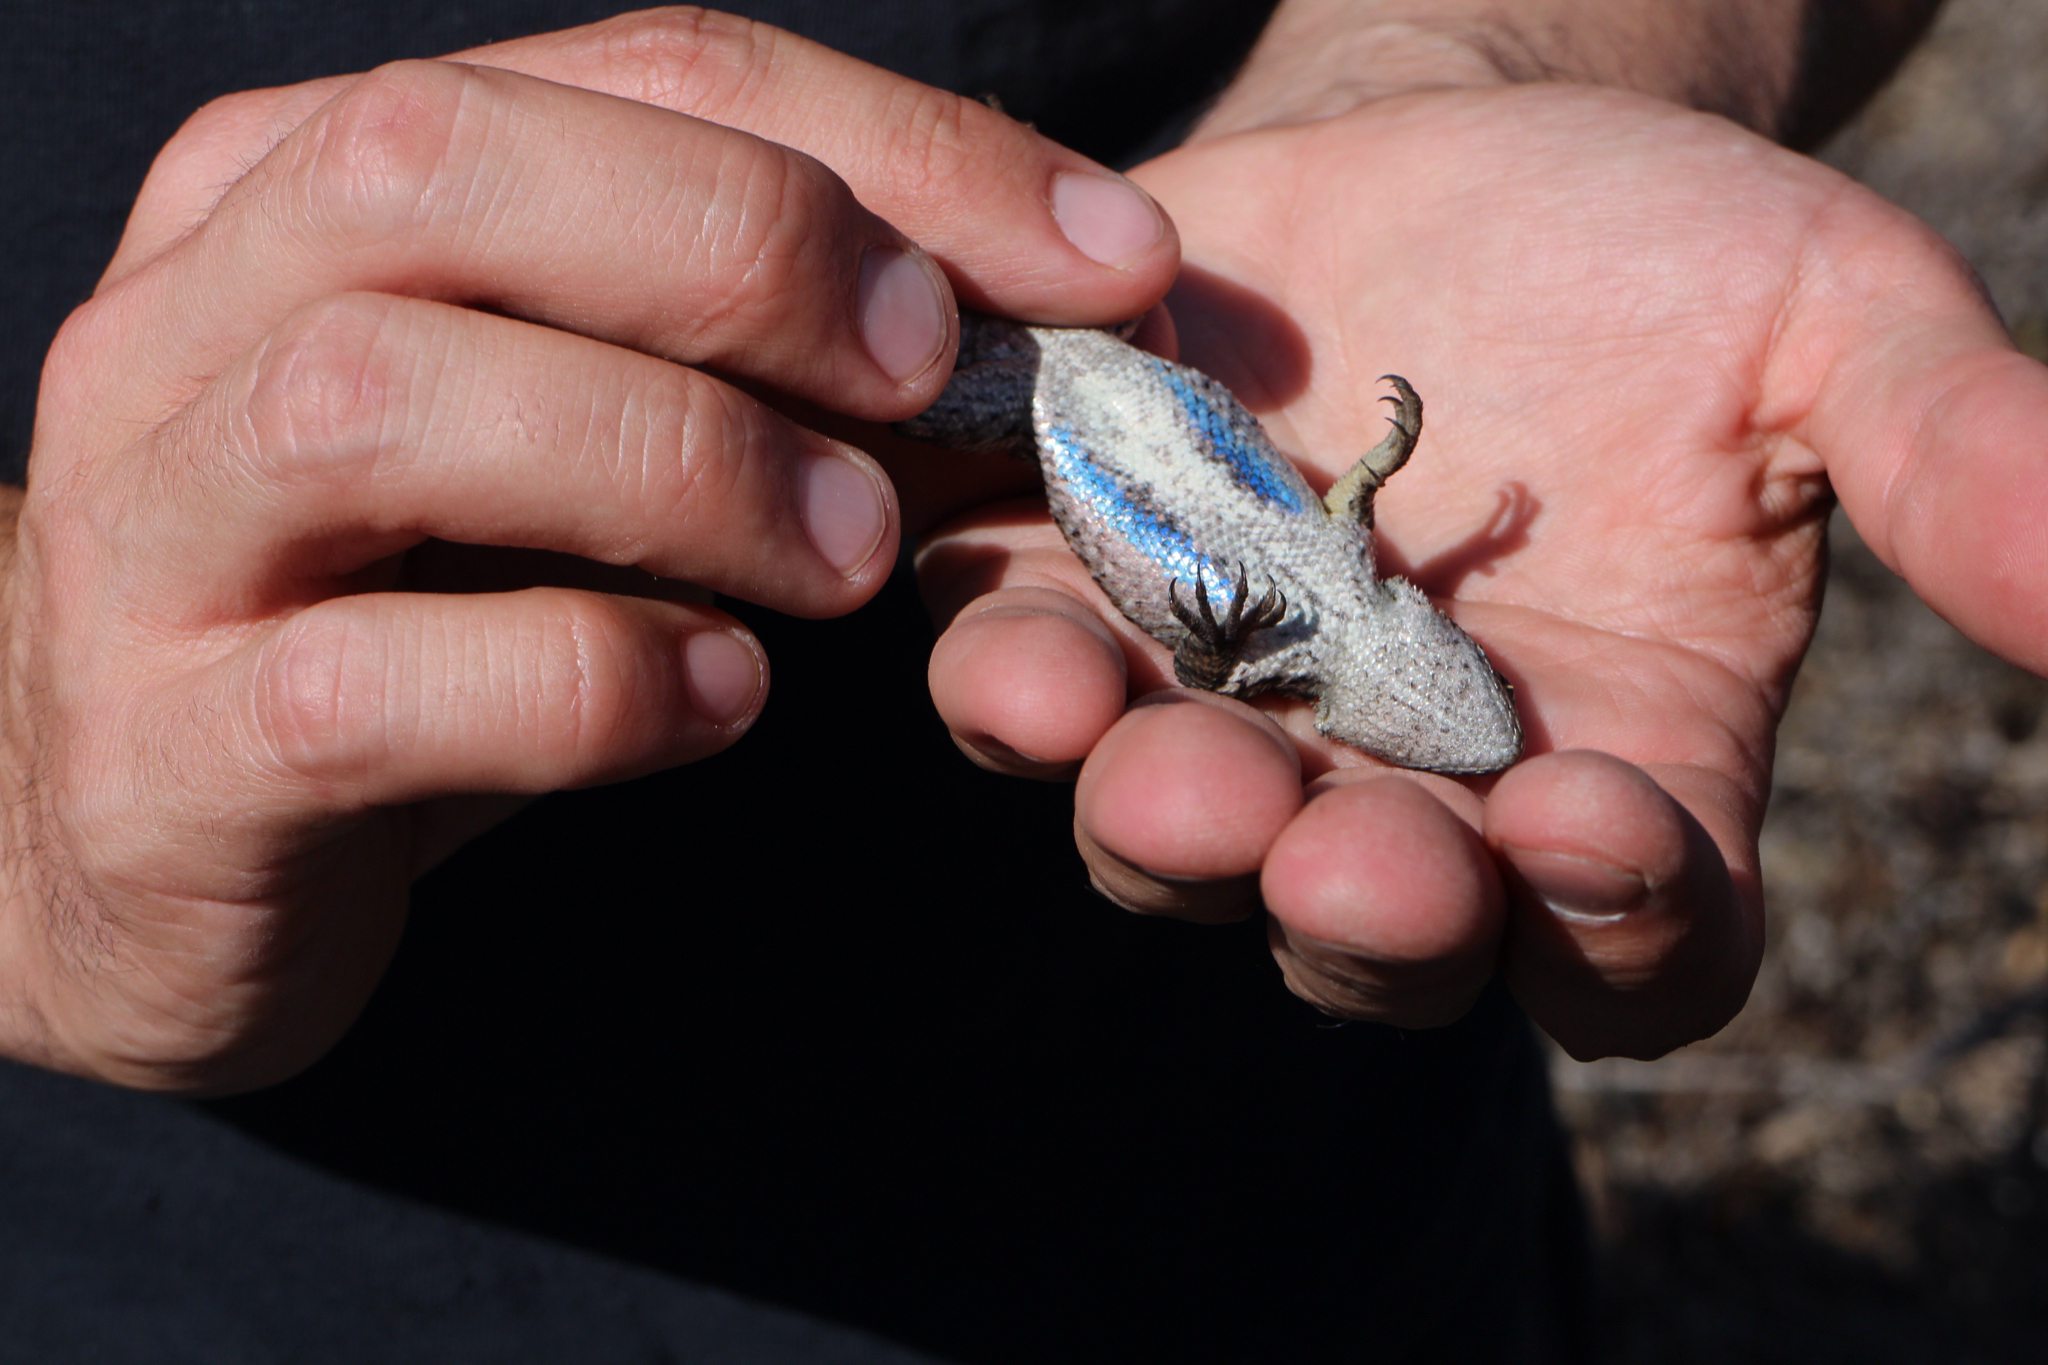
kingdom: Animalia
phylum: Chordata
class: Squamata
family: Phrynosomatidae
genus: Sceloporus
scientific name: Sceloporus occidentalis
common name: Western fence lizard
